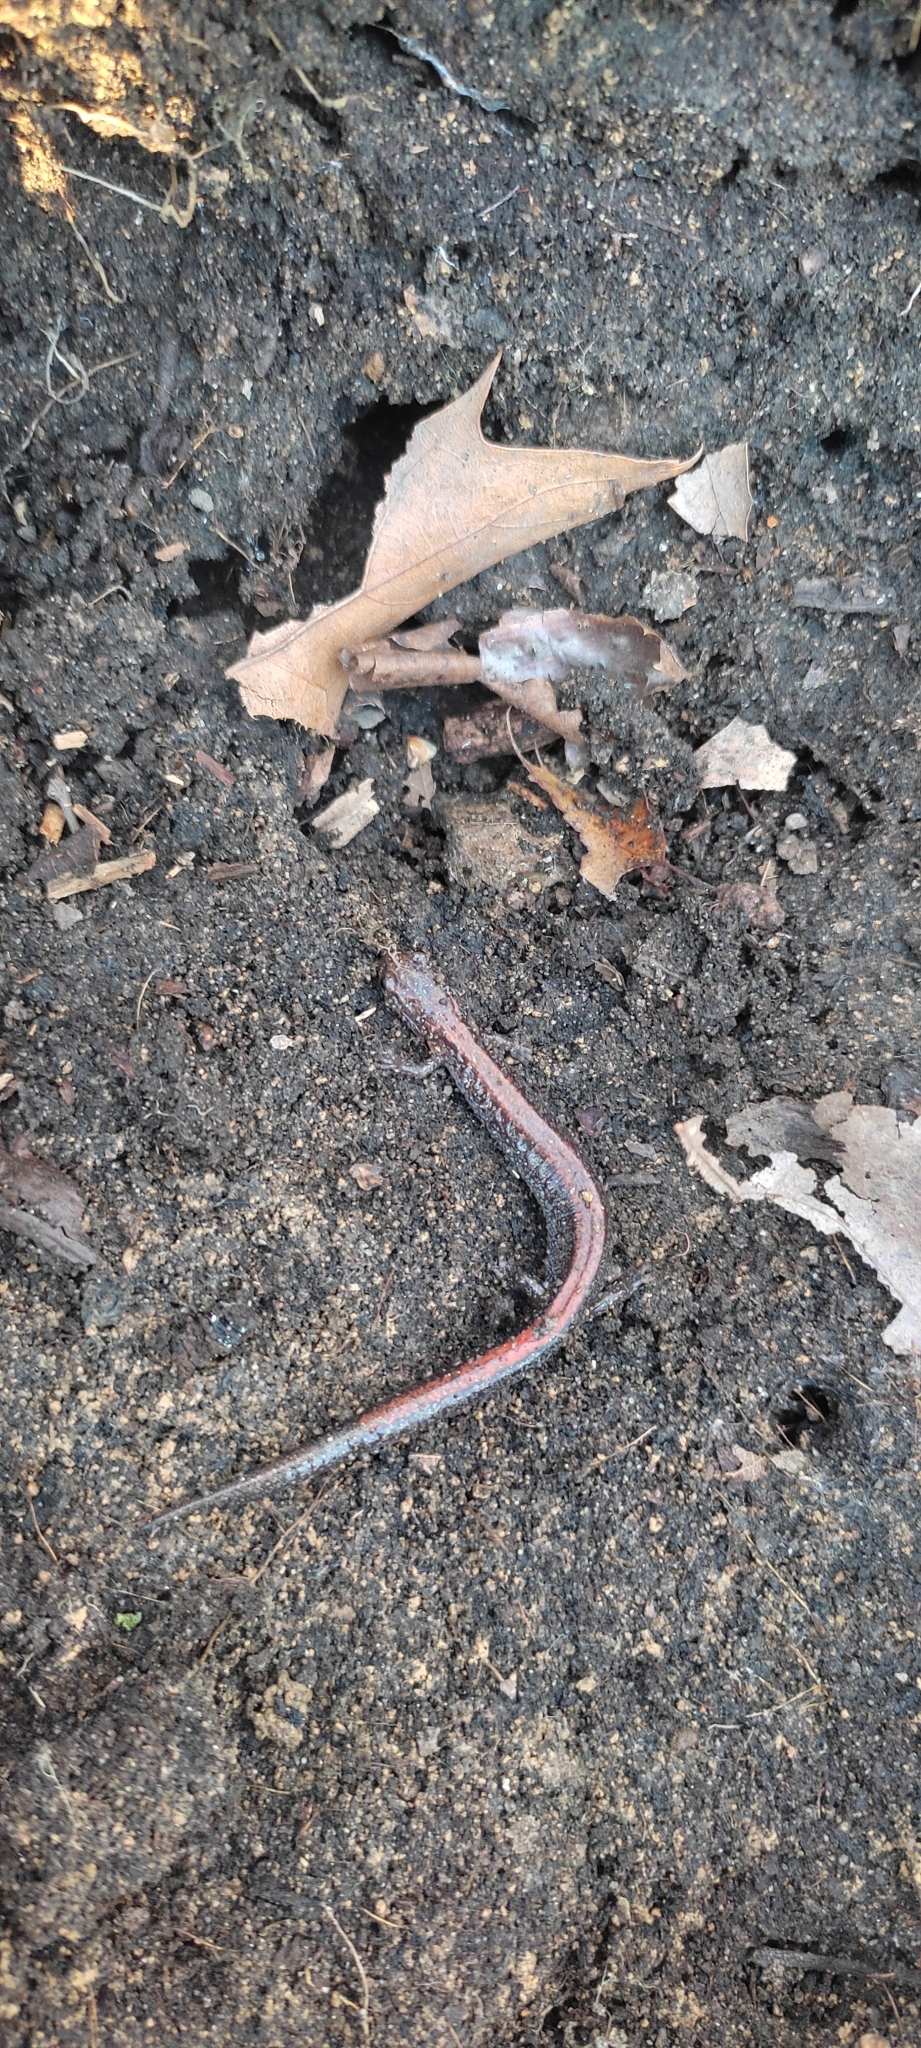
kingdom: Animalia
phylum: Chordata
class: Amphibia
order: Caudata
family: Plethodontidae
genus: Plethodon
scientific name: Plethodon cinereus
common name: Redback salamander
